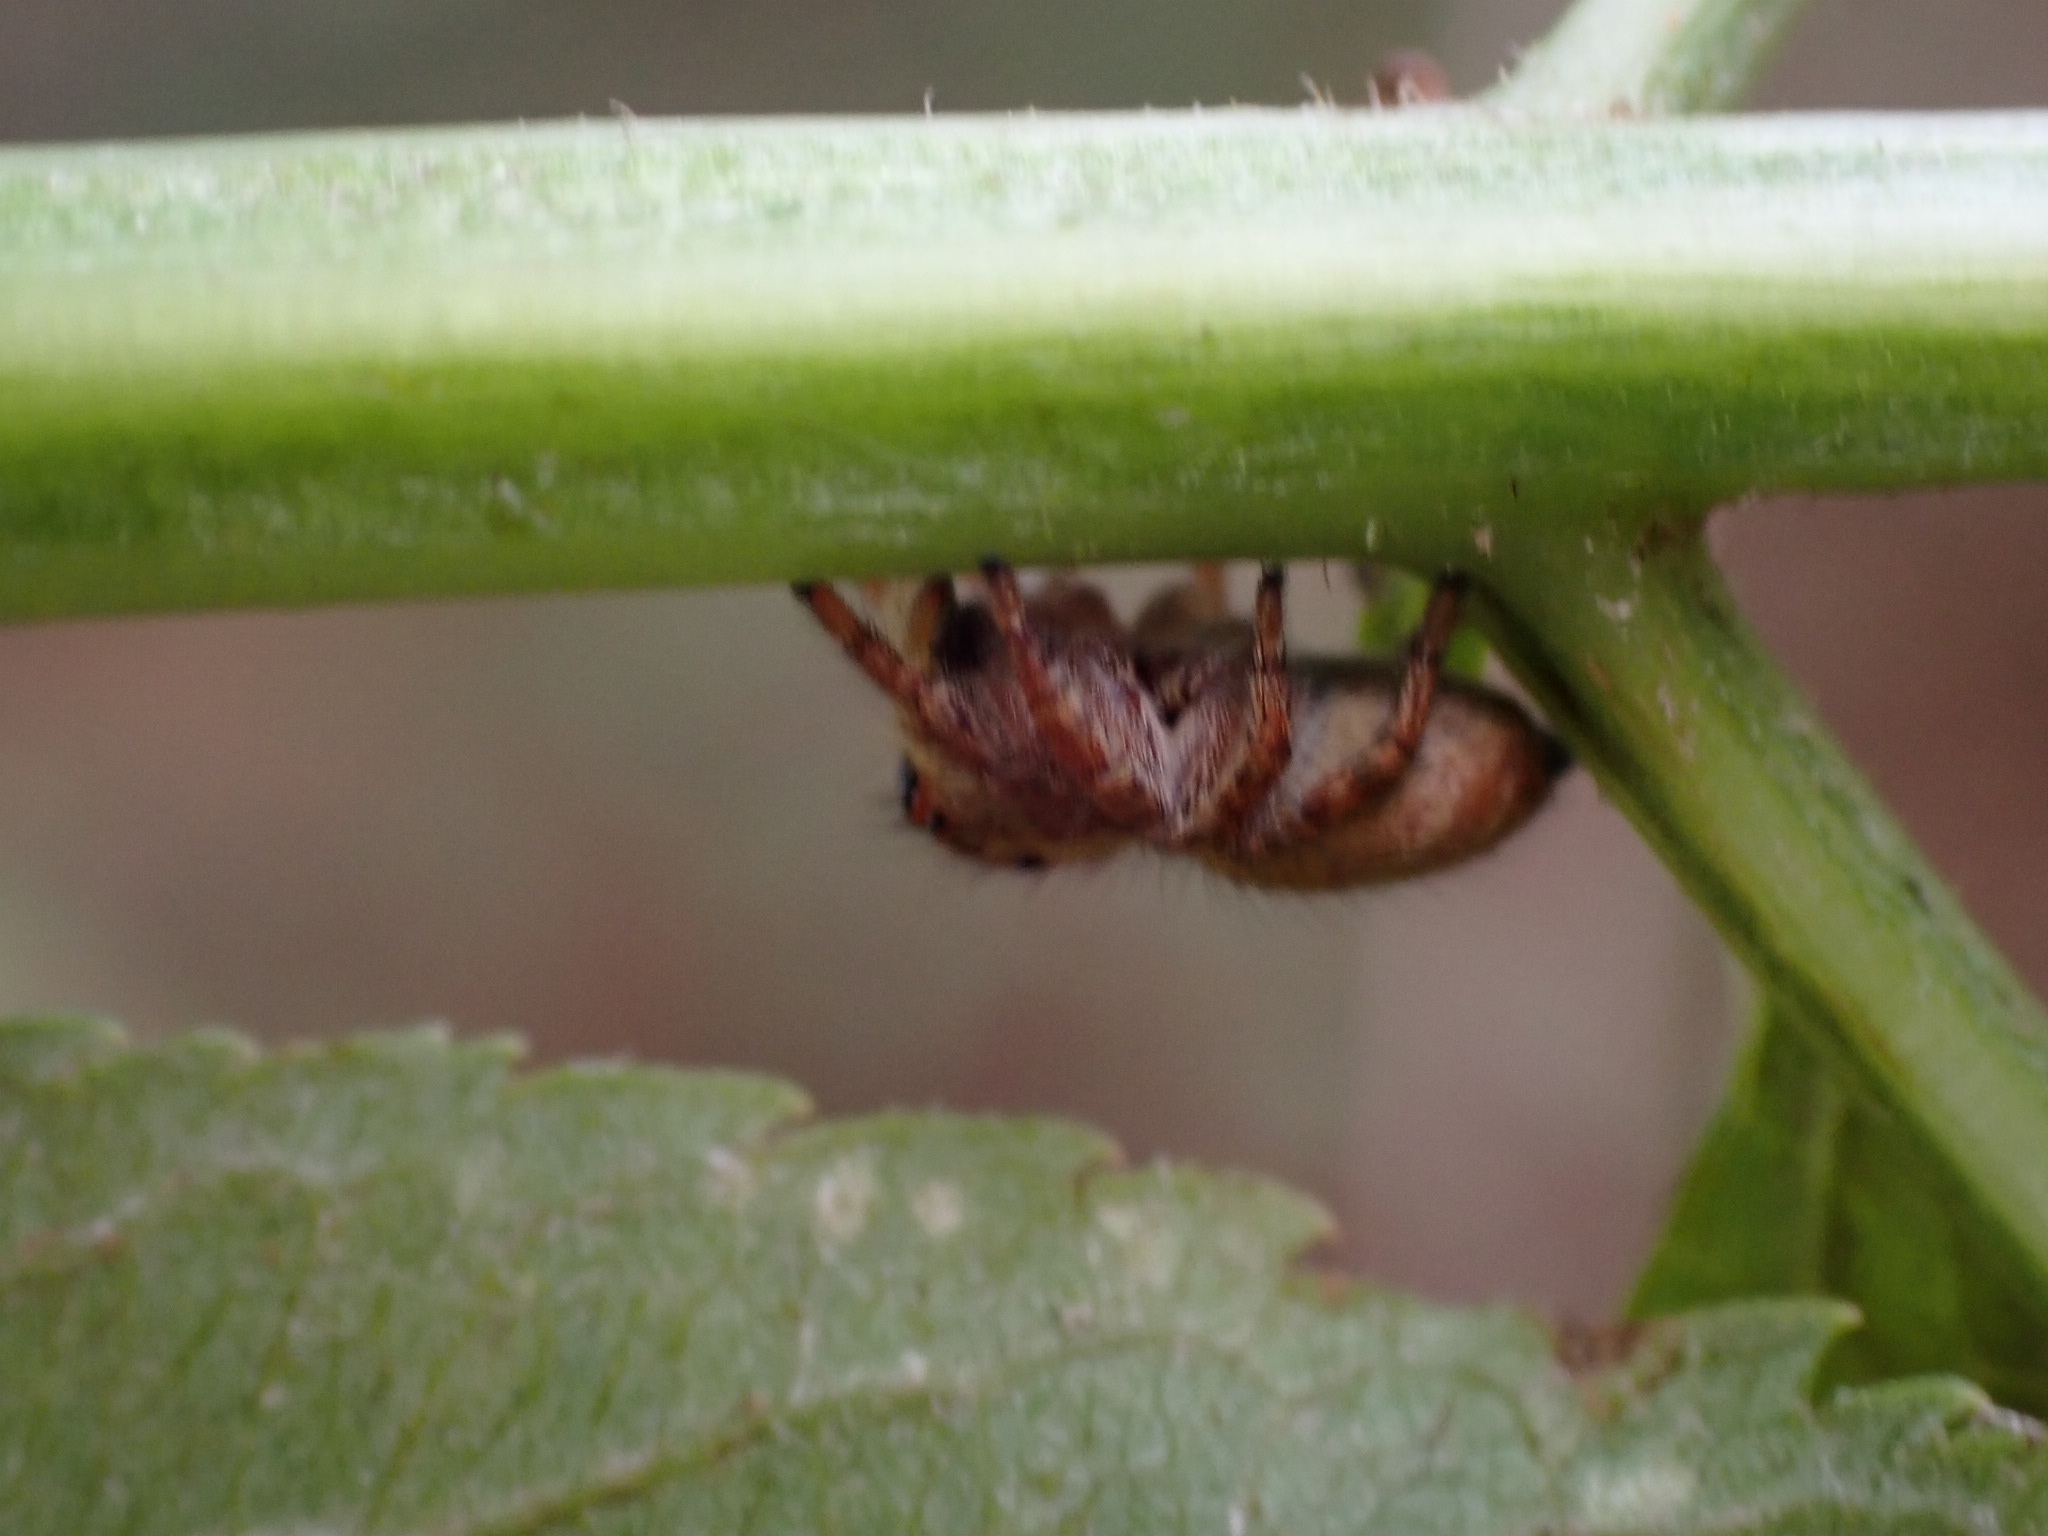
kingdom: Animalia
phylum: Arthropoda
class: Arachnida
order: Araneae
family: Salticidae
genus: Carrhotus
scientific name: Carrhotus xanthogramma
